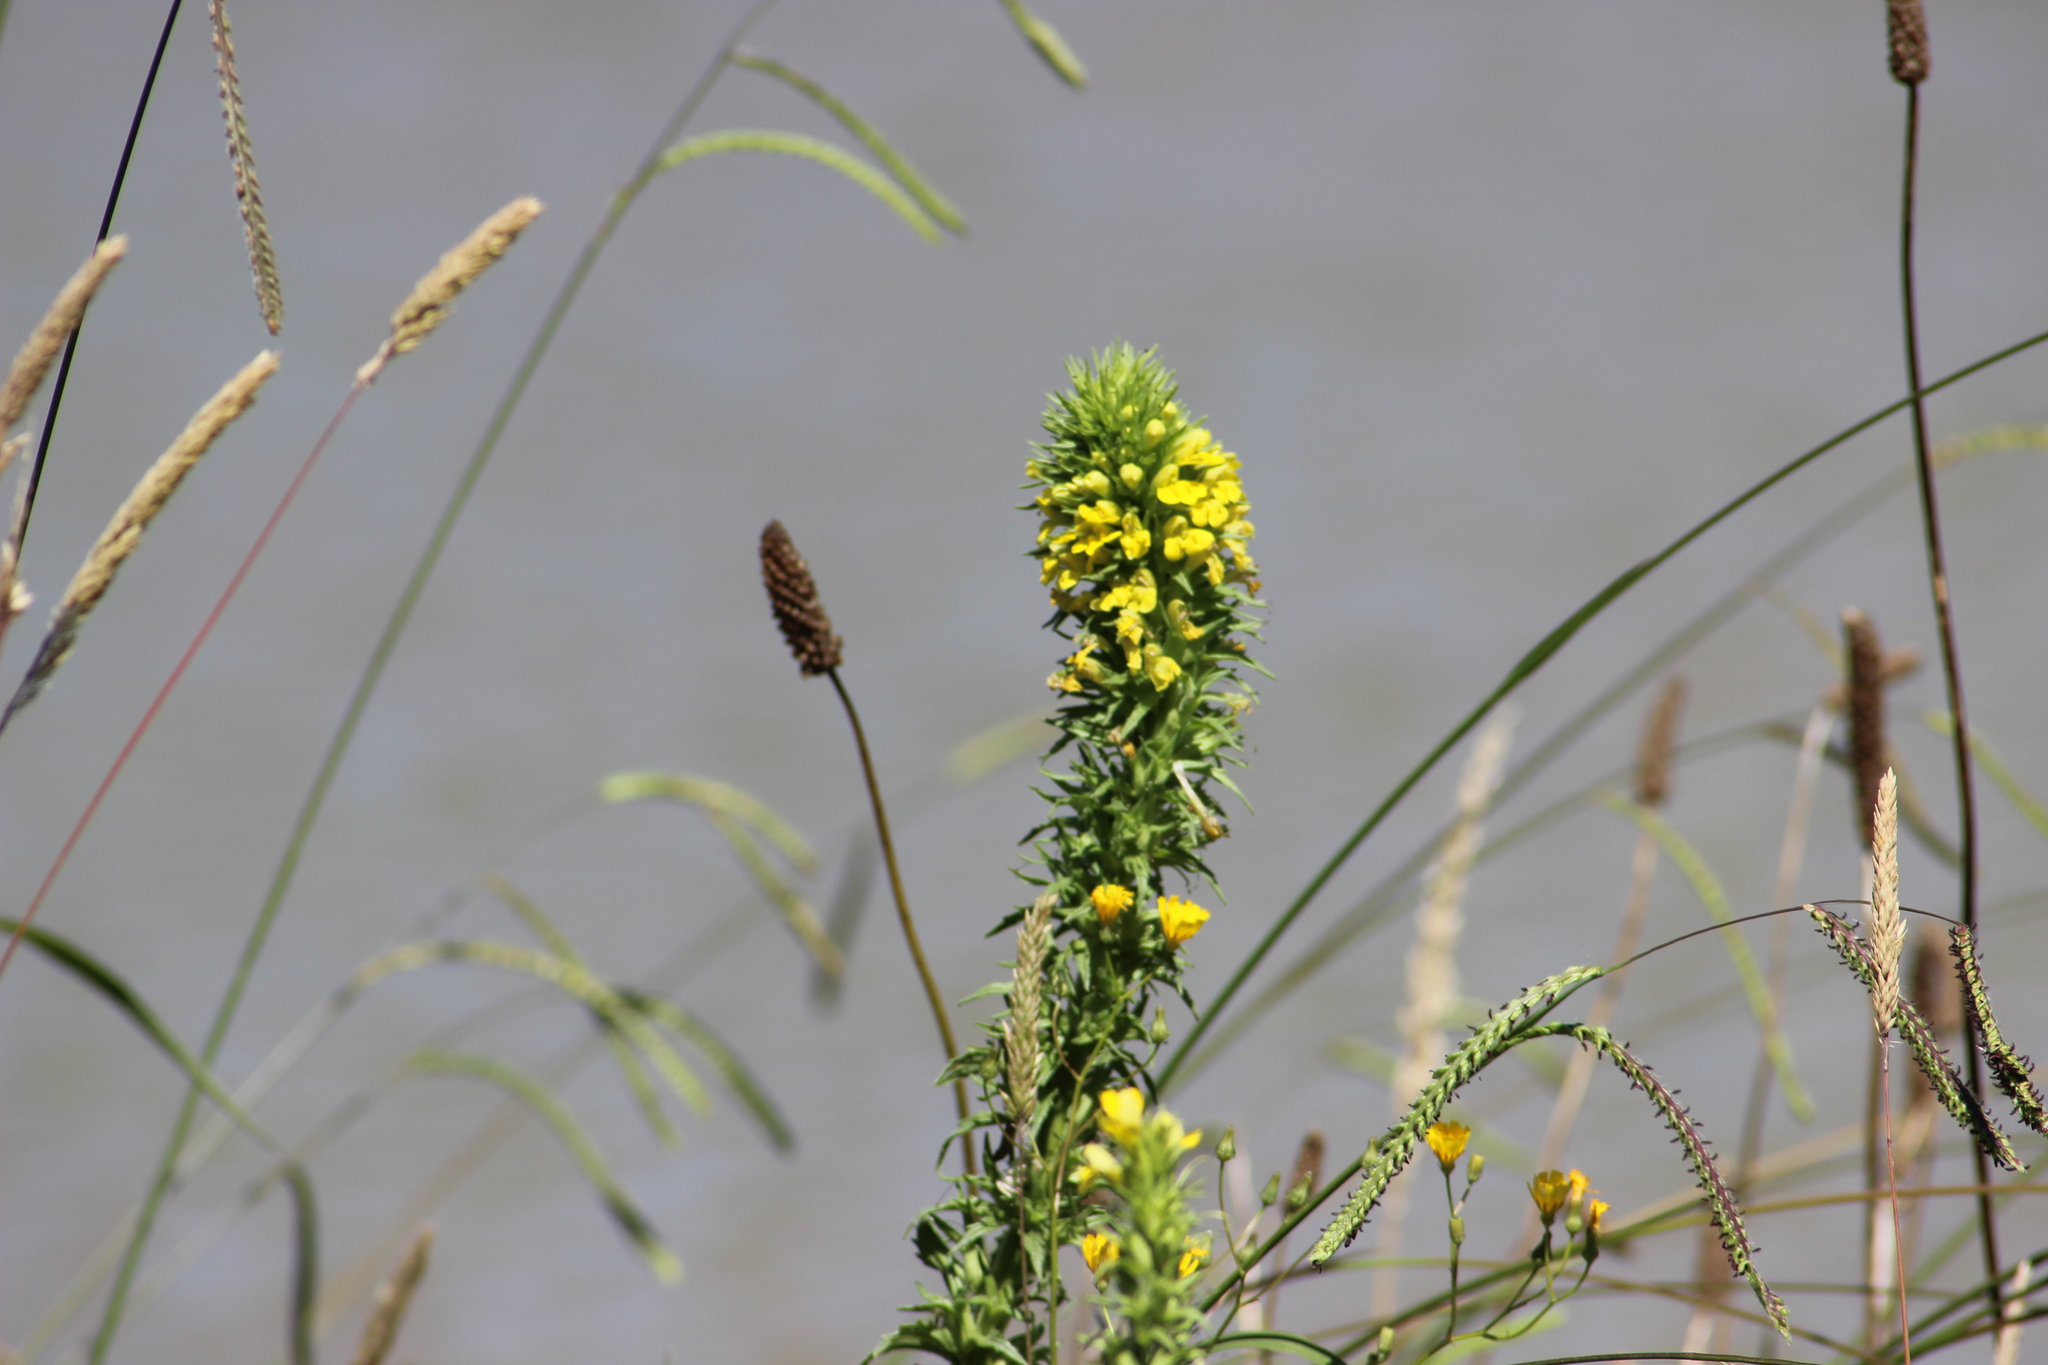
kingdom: Plantae
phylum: Tracheophyta
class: Magnoliopsida
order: Lamiales
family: Orobanchaceae
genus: Bellardia
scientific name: Bellardia viscosa
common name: Sticky parentucellia
